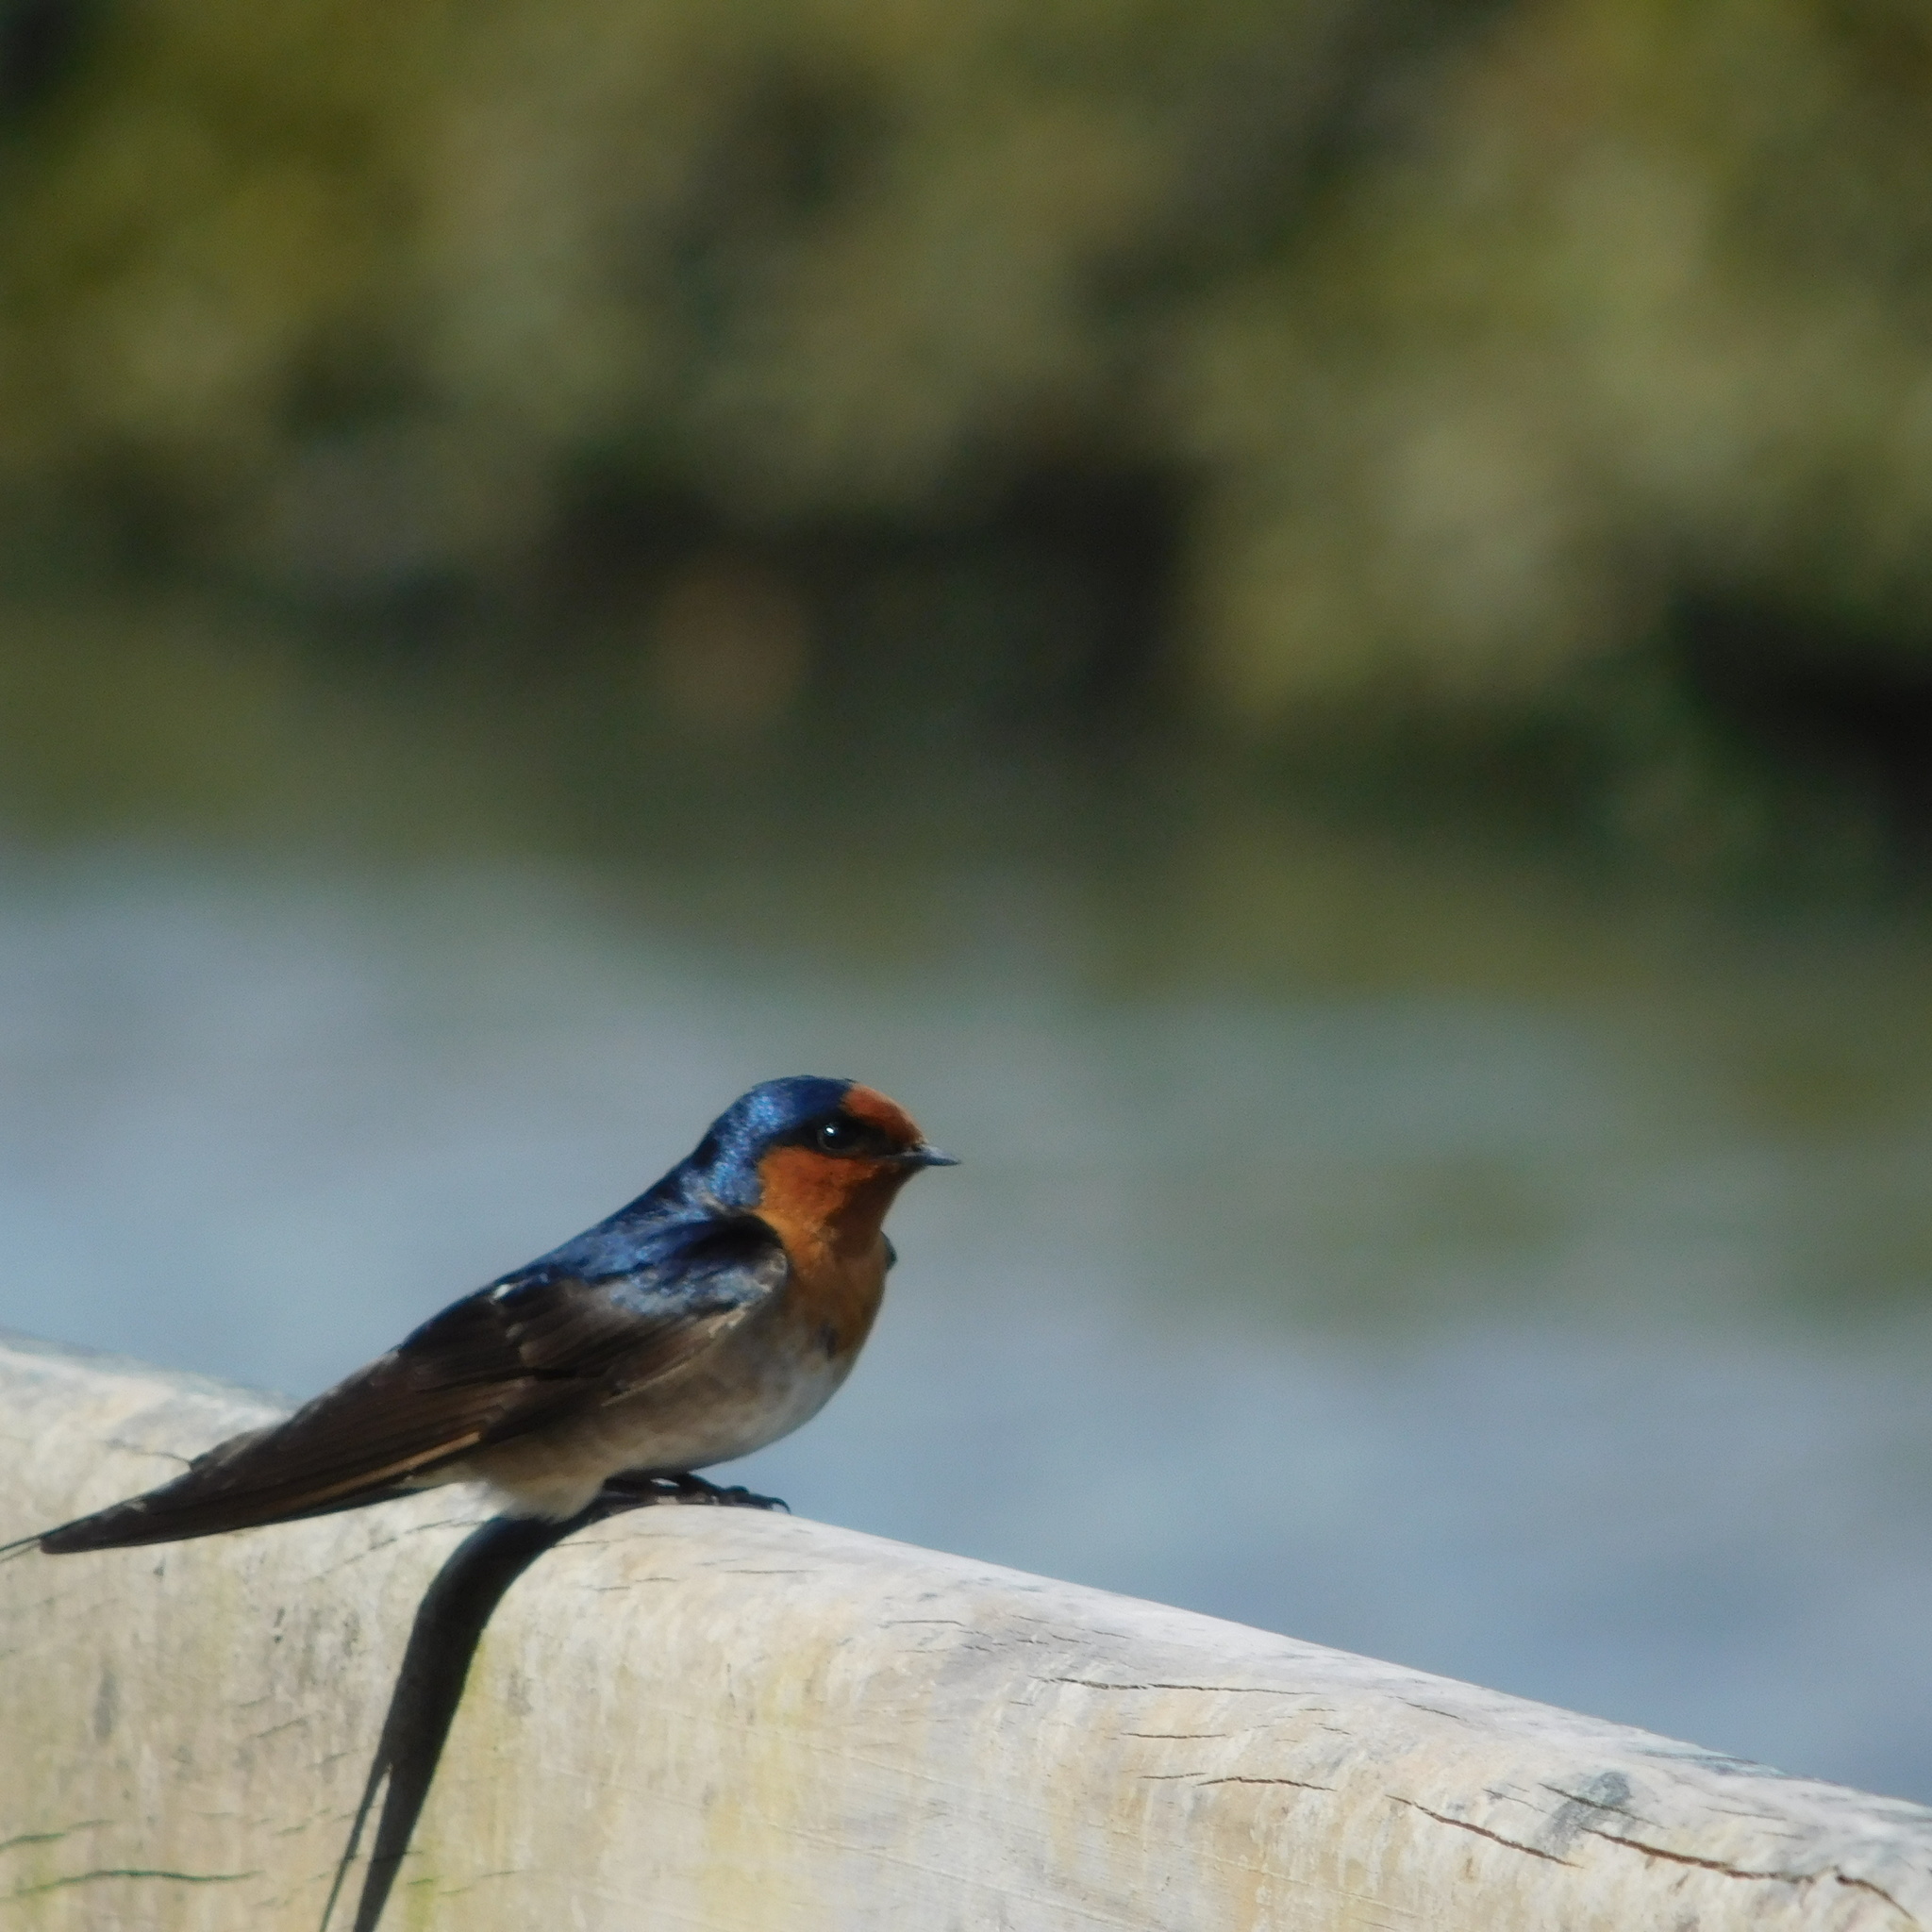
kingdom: Animalia
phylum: Chordata
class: Aves
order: Passeriformes
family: Hirundinidae
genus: Hirundo
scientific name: Hirundo neoxena
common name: Welcome swallow
